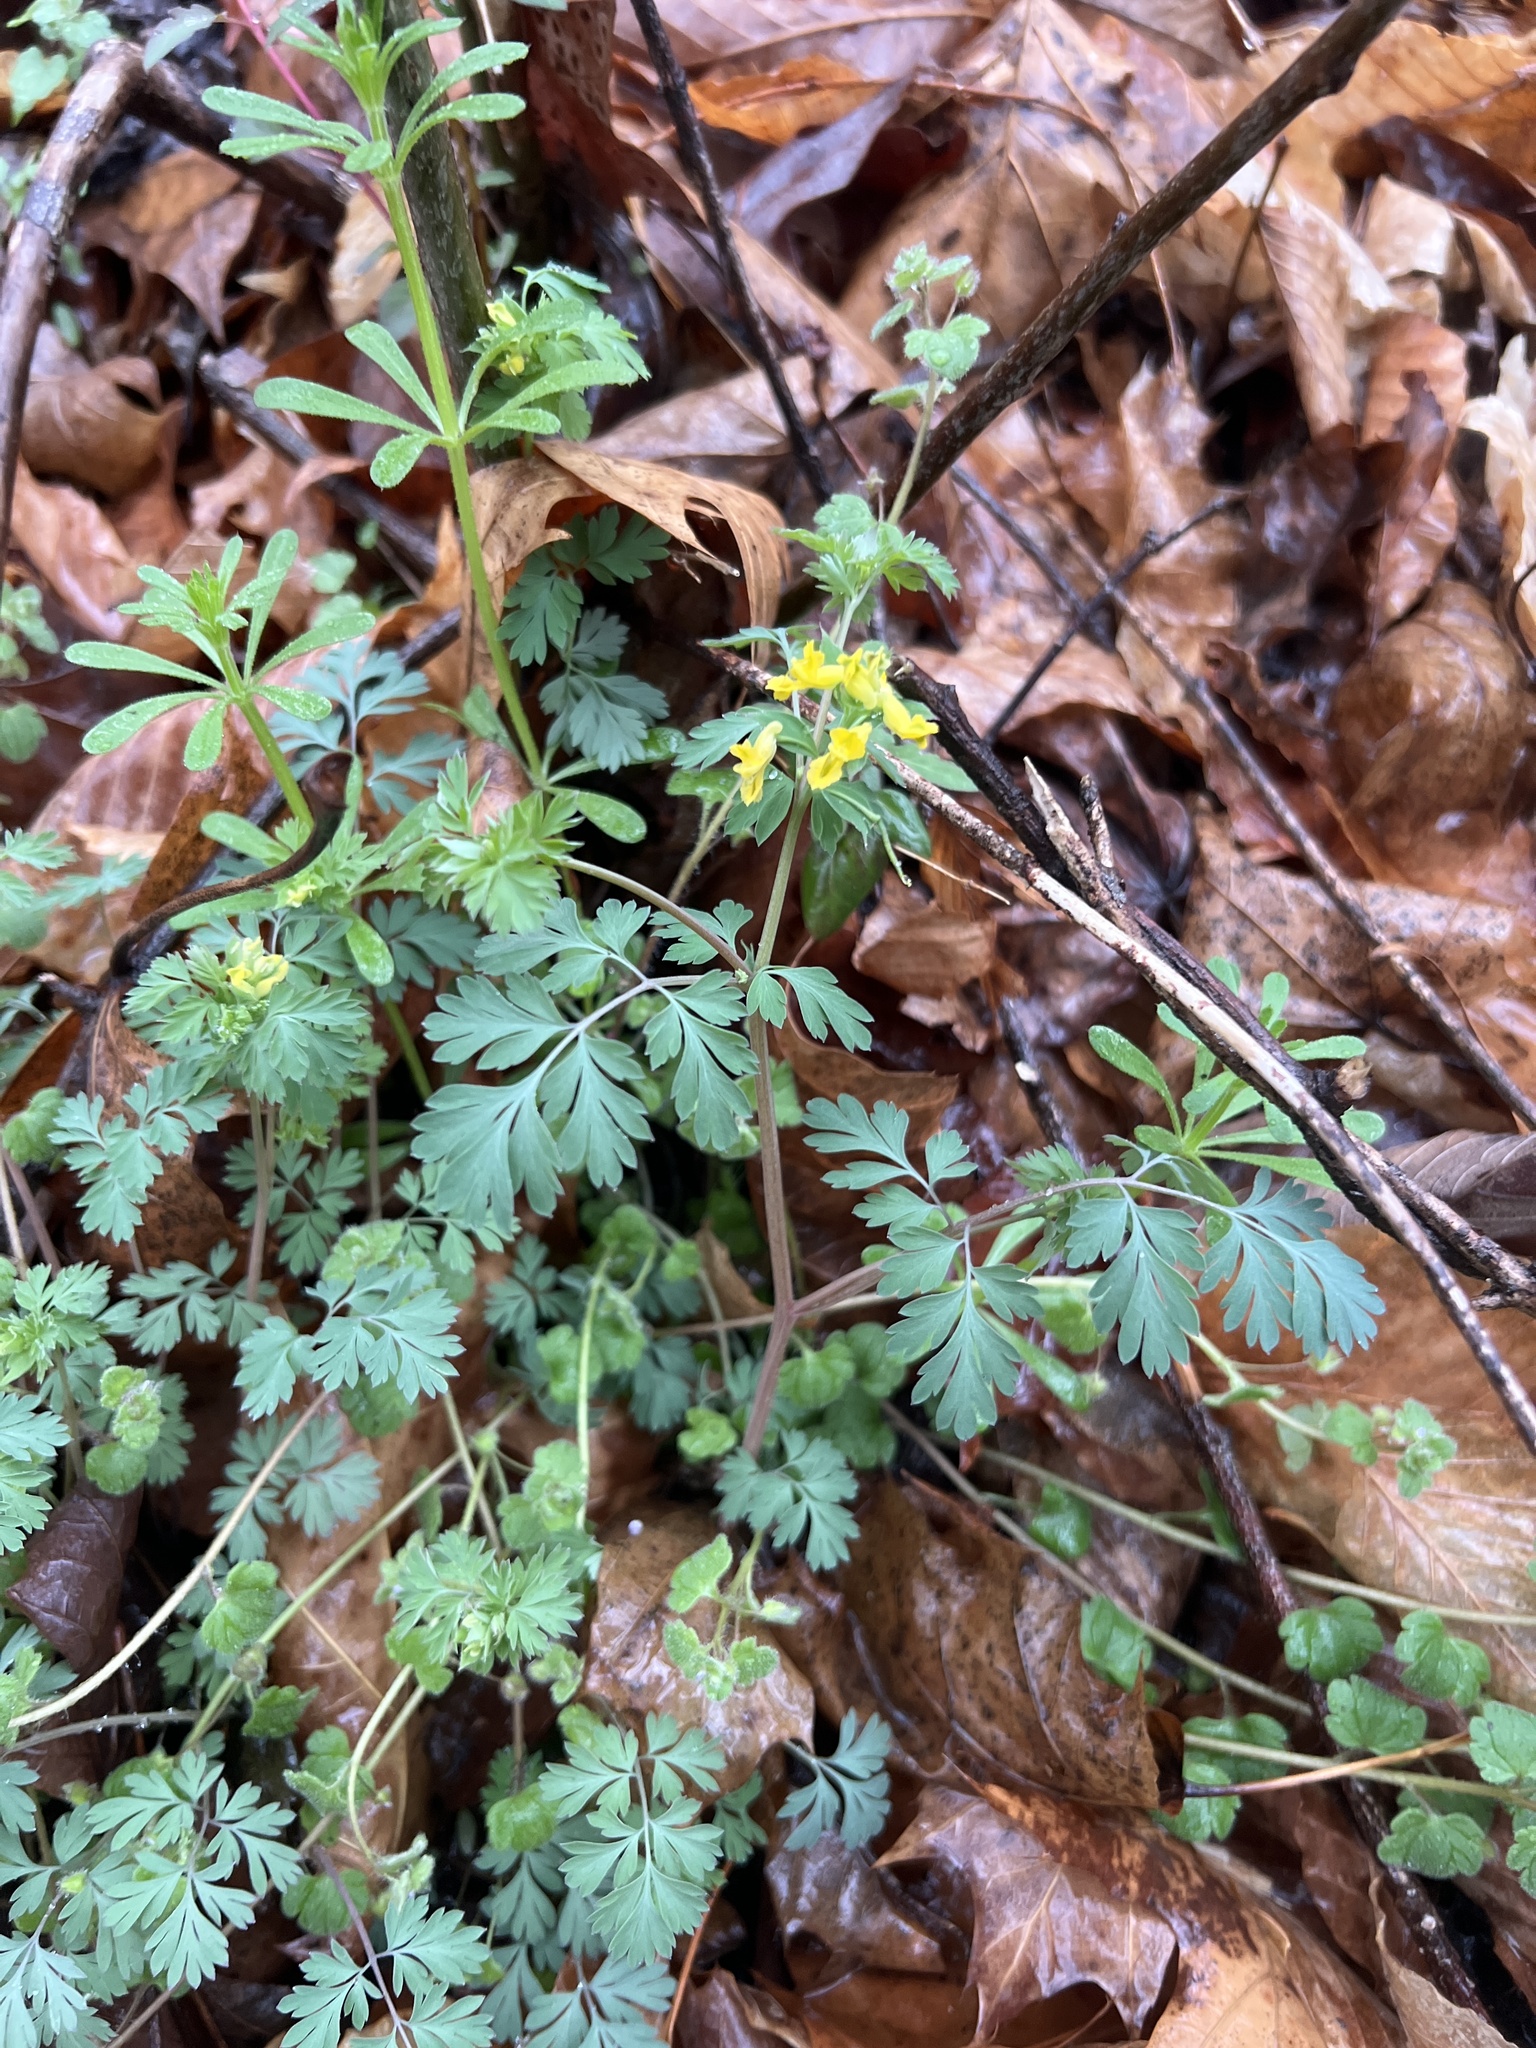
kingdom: Plantae
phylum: Tracheophyta
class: Magnoliopsida
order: Ranunculales
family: Papaveraceae
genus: Corydalis
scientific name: Corydalis flavula
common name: Yellow corydalis
